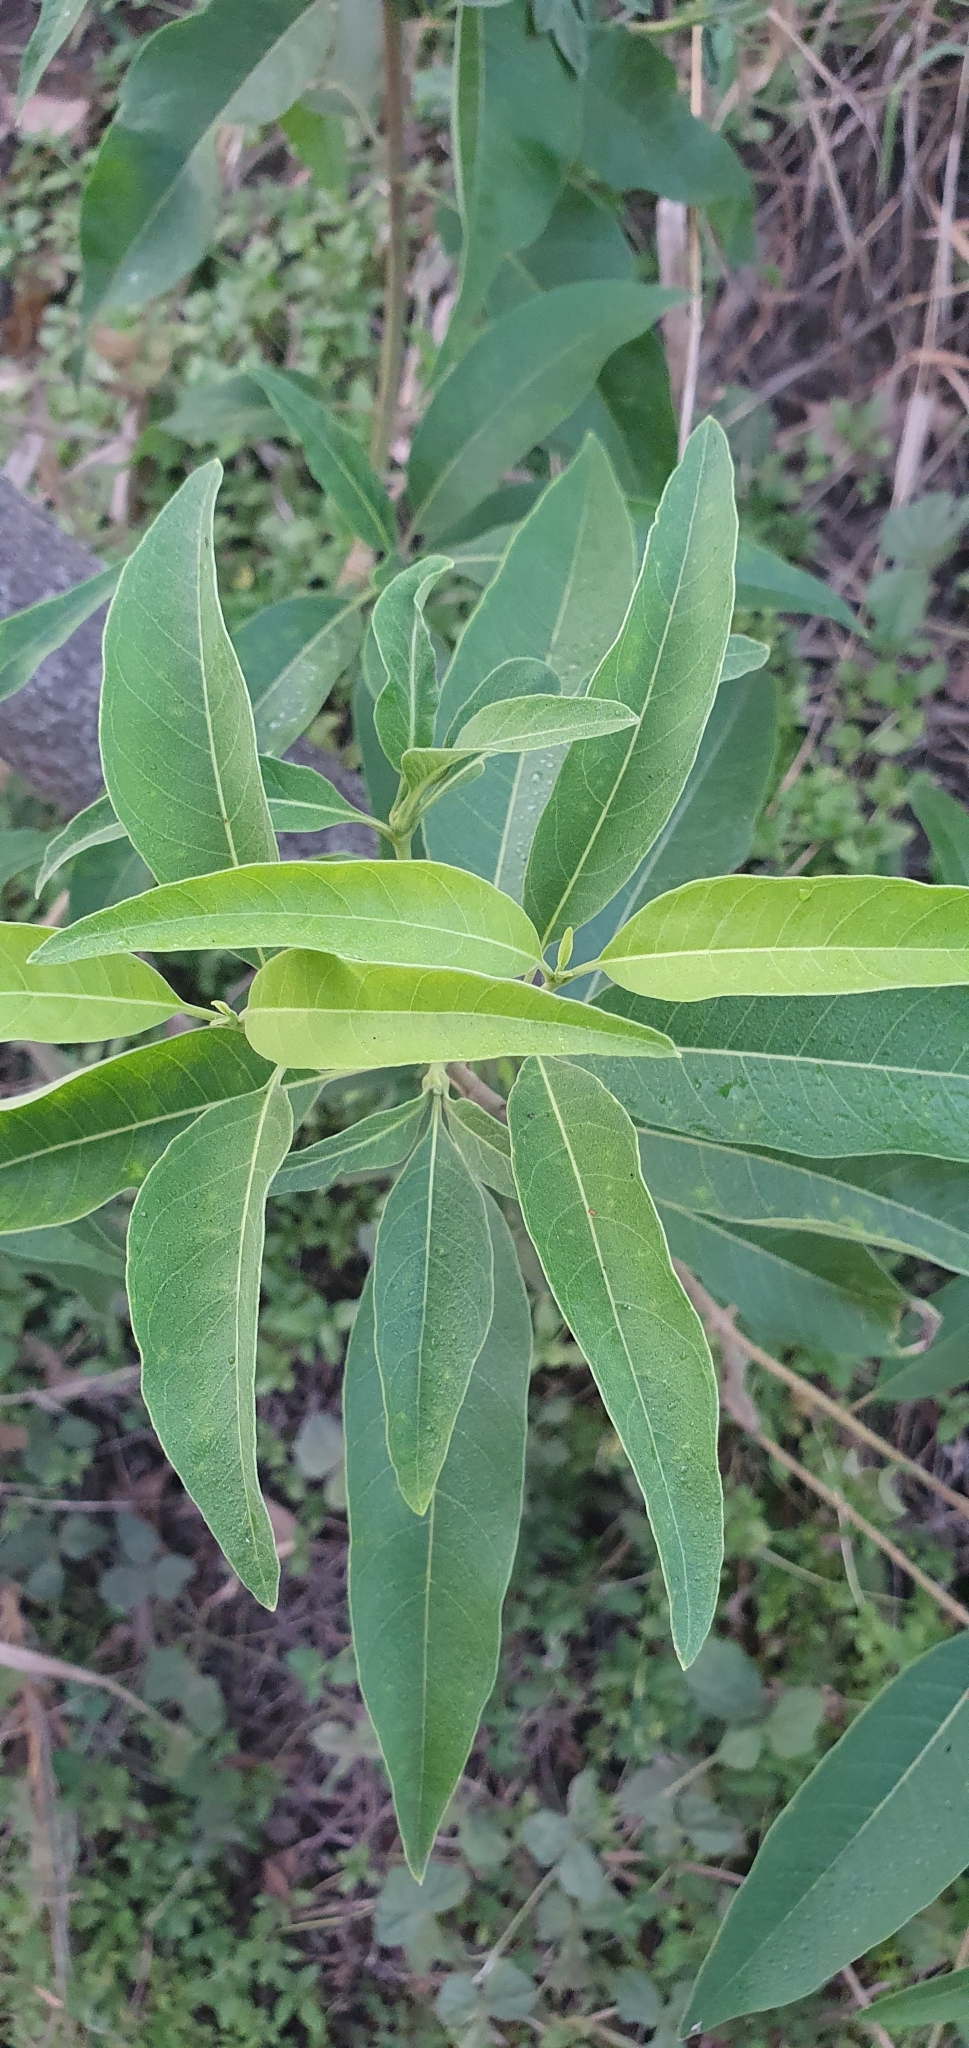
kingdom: Plantae
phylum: Tracheophyta
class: Magnoliopsida
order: Gentianales
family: Apocynaceae
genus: Alstonia
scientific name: Alstonia mollis
